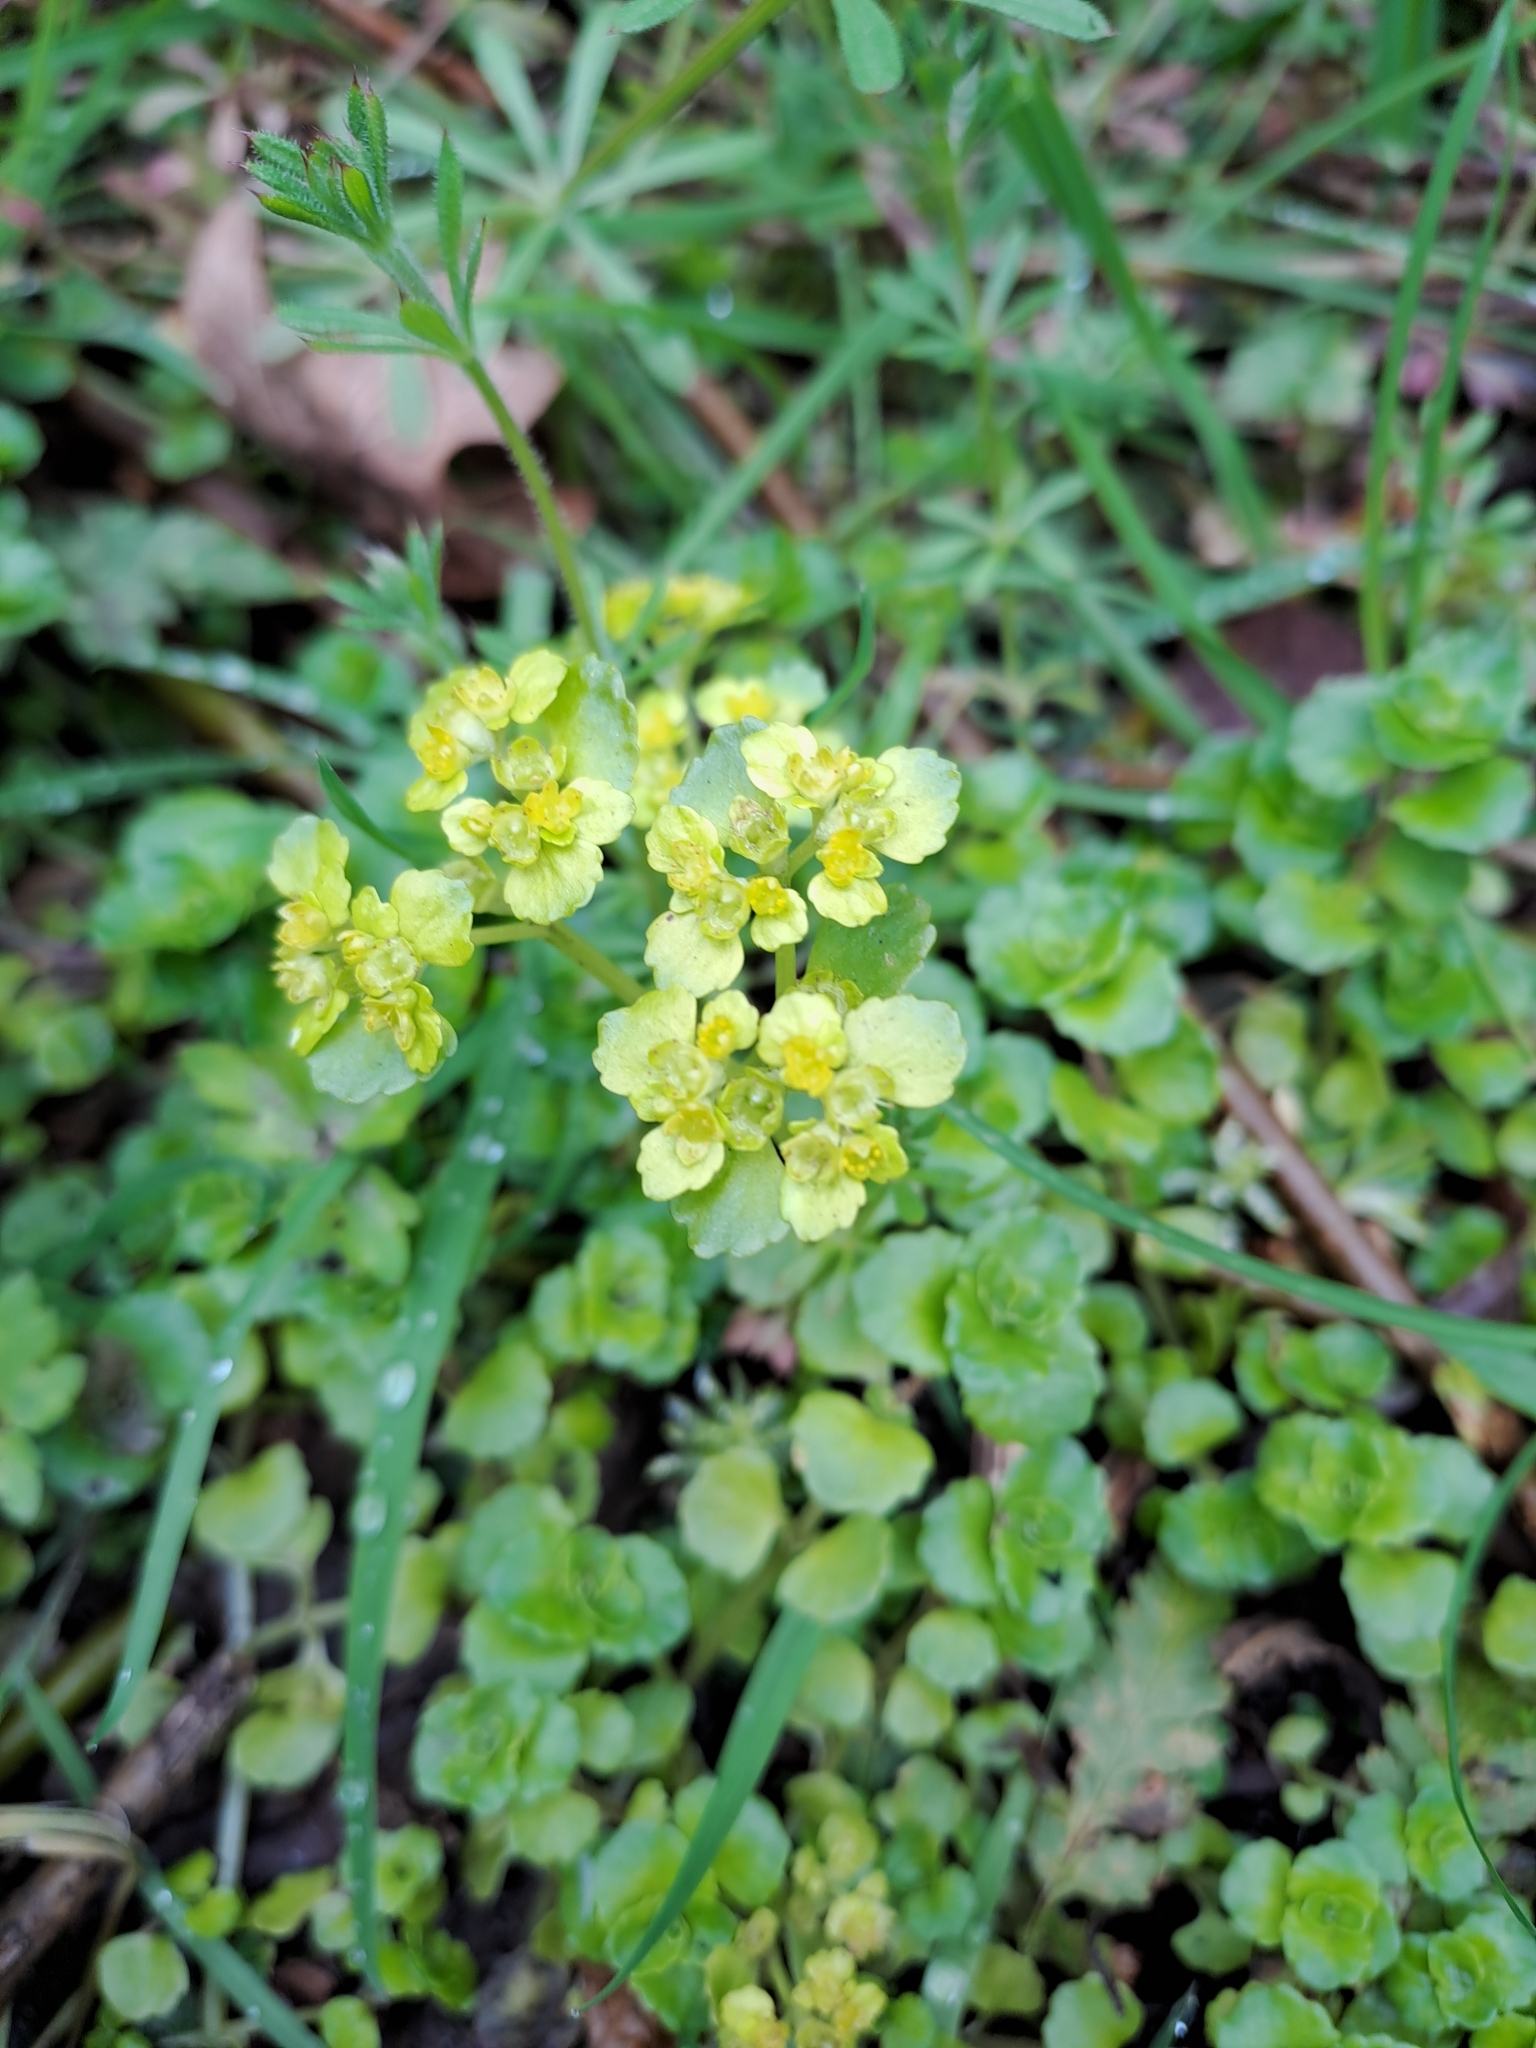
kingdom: Plantae
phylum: Tracheophyta
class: Magnoliopsida
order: Saxifragales
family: Saxifragaceae
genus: Chrysosplenium
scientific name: Chrysosplenium oppositifolium
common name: Opposite-leaved golden-saxifrage
